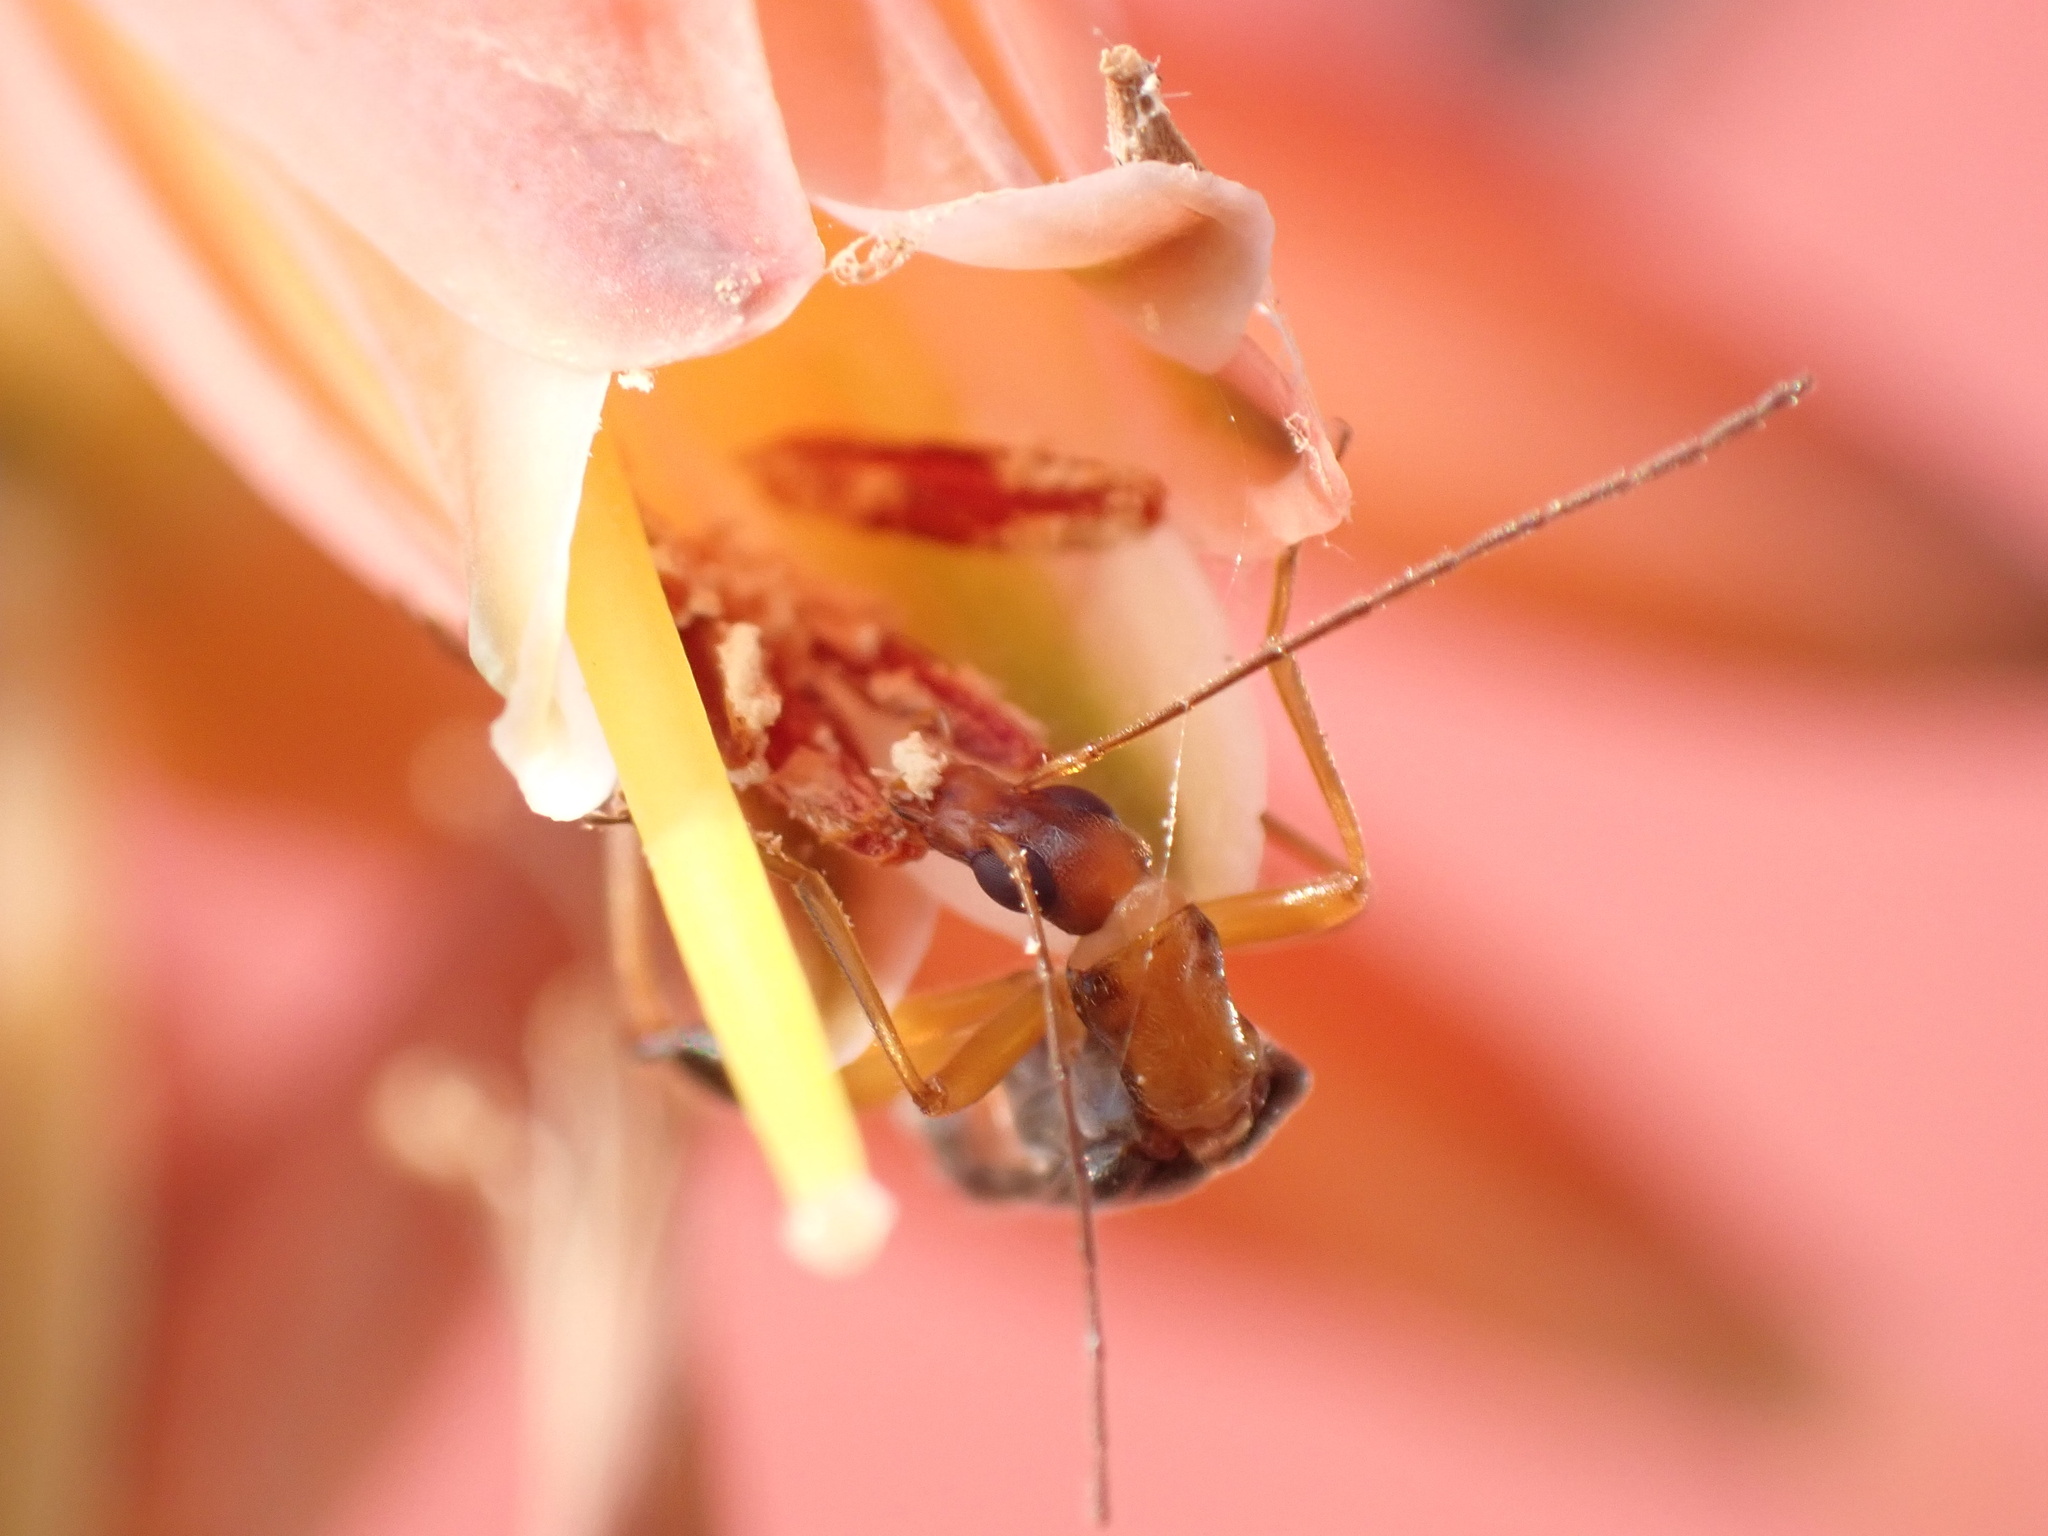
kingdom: Animalia
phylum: Arthropoda
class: Insecta
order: Coleoptera
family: Oedemeridae
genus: Oedemera
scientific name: Oedemera murinipennis
